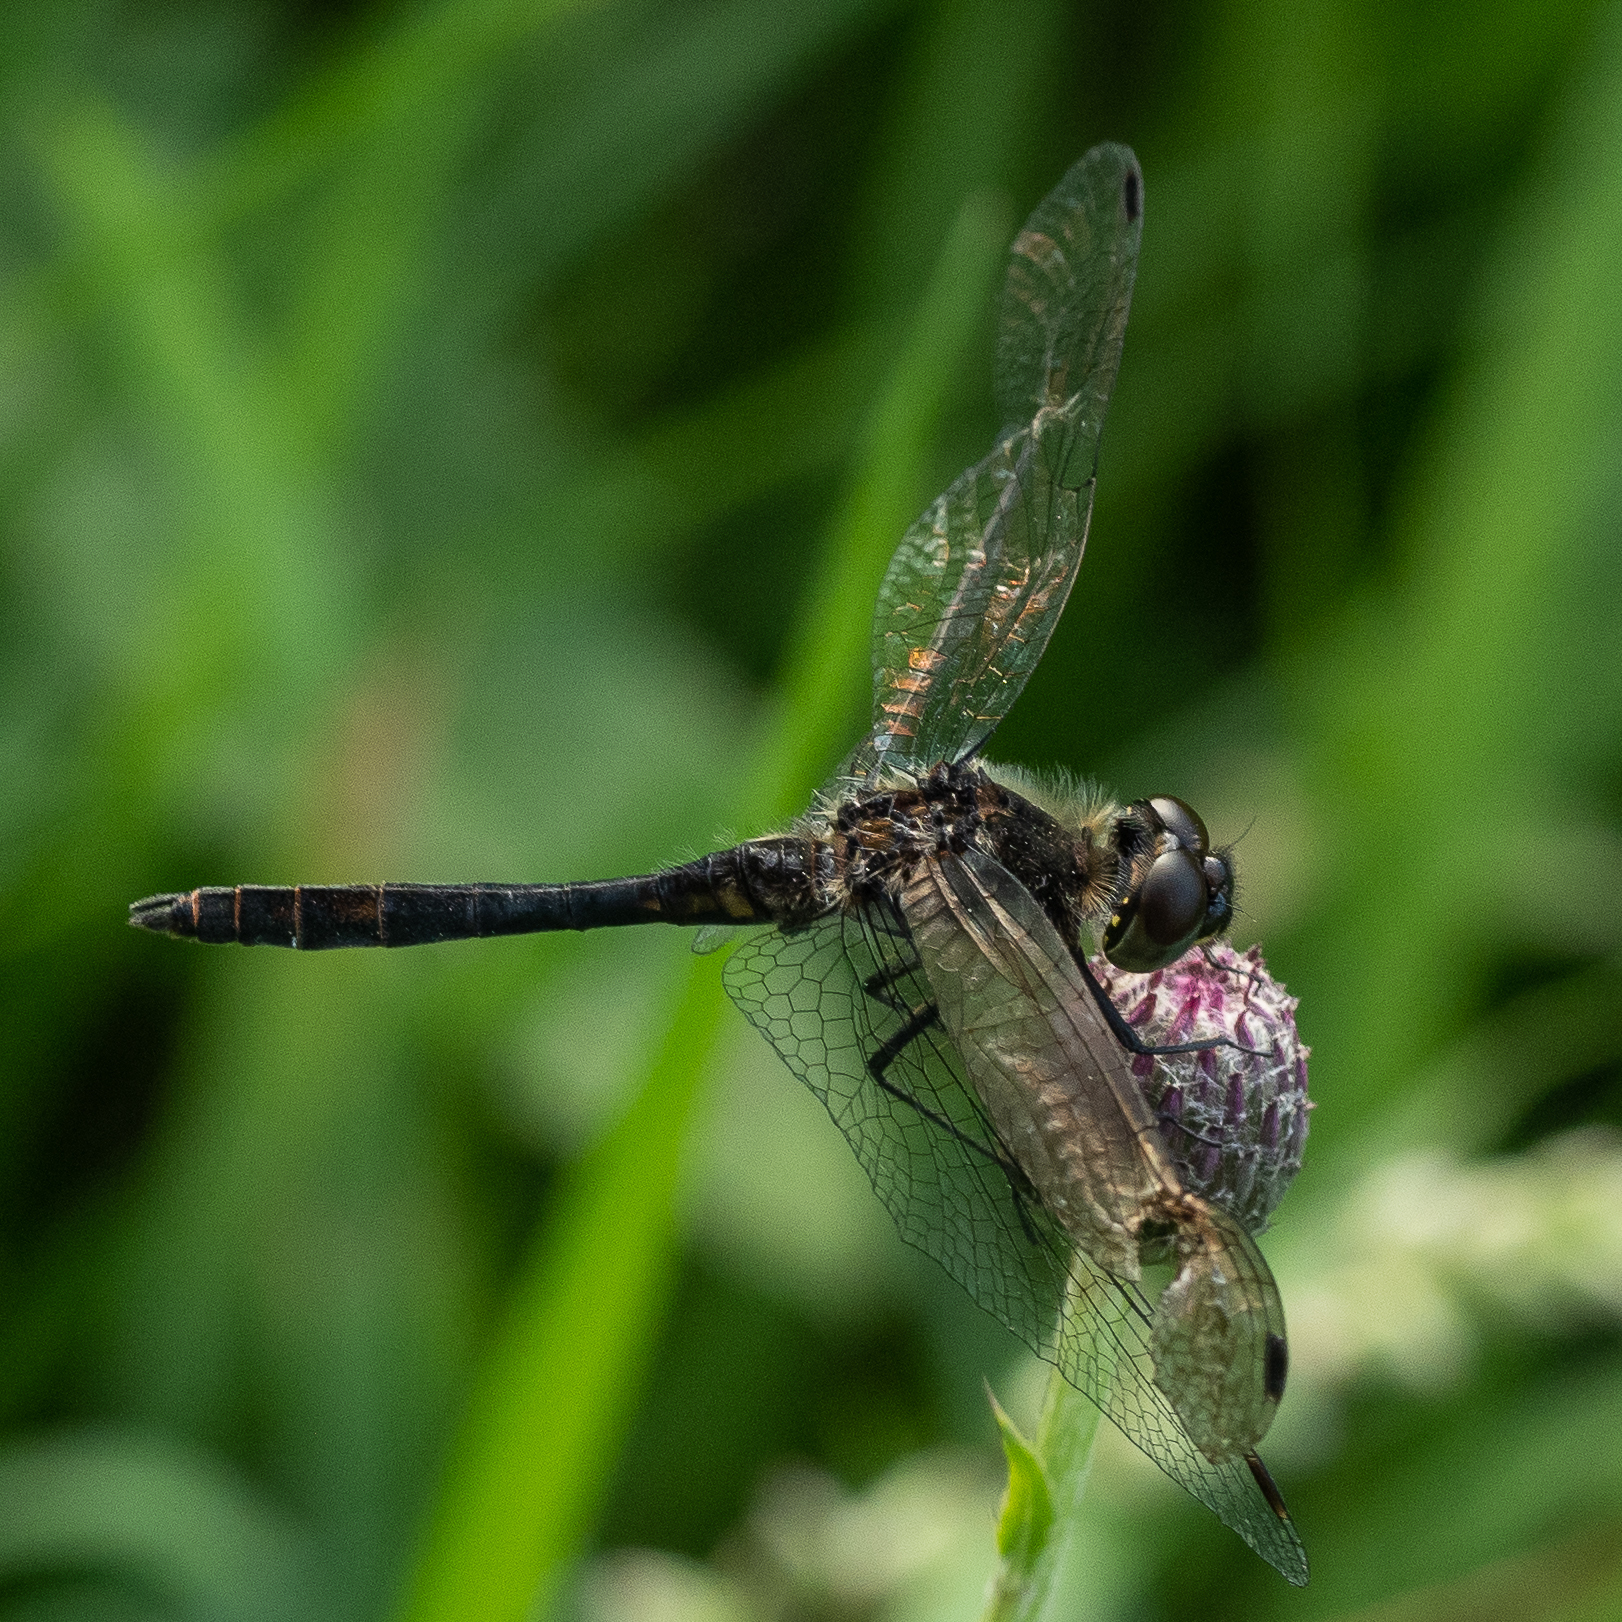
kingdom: Animalia
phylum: Arthropoda
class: Insecta
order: Odonata
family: Libellulidae
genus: Sympetrum
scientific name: Sympetrum danae
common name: Black darter
